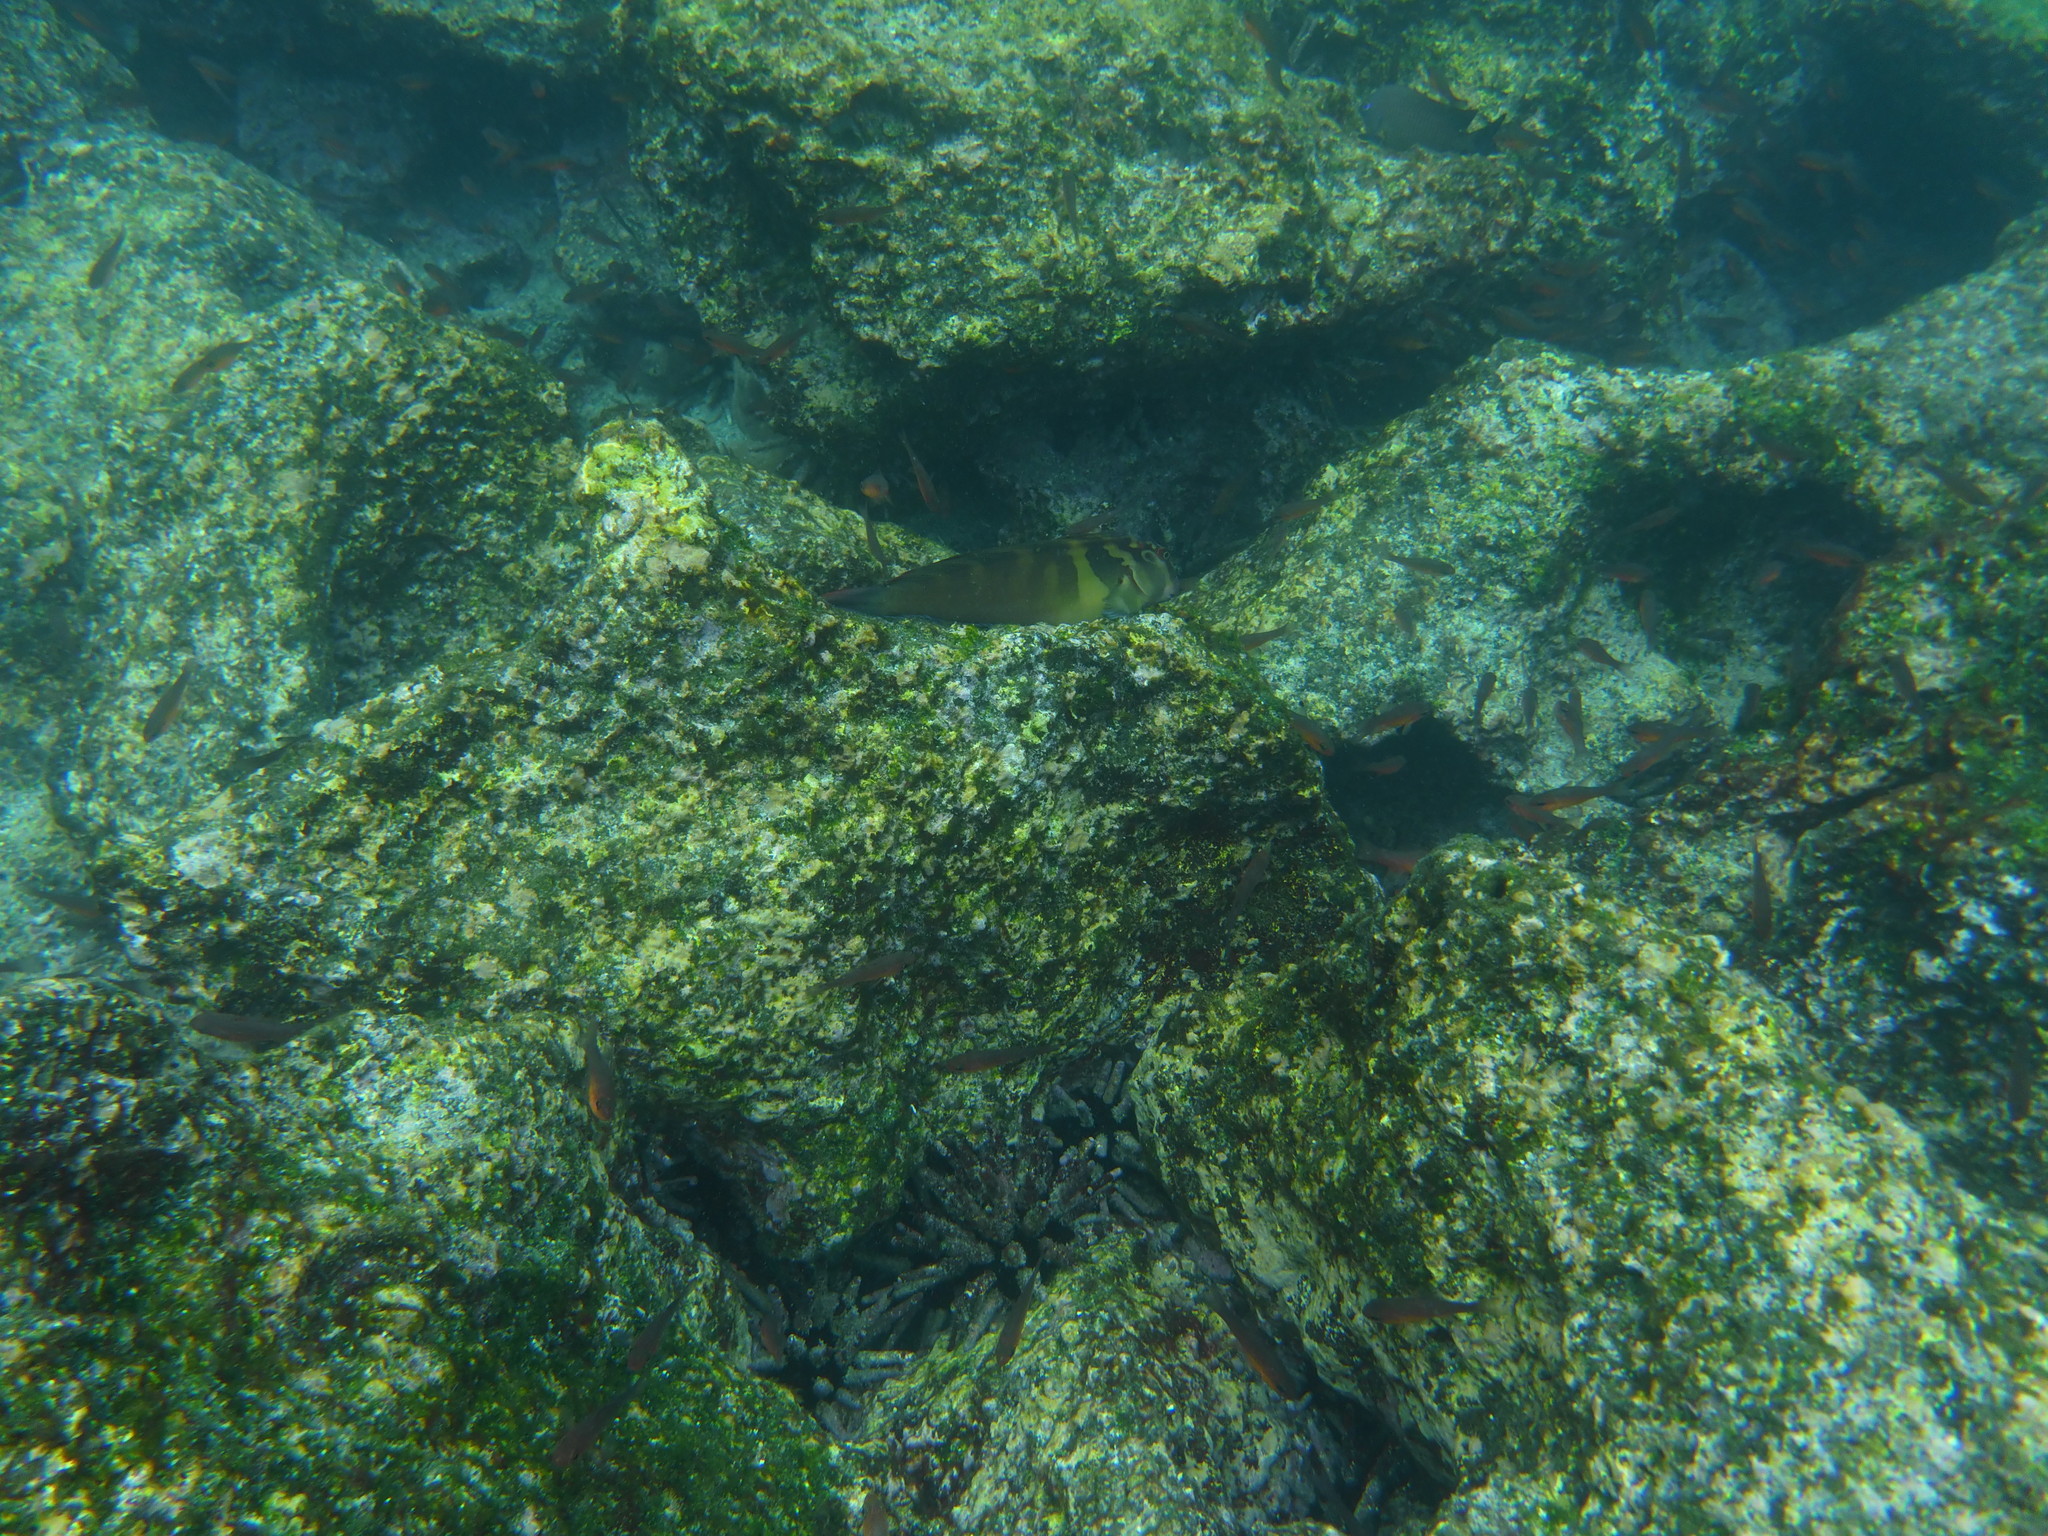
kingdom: Animalia
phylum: Chordata
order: Perciformes
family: Blenniidae
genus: Ophioblennius
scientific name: Ophioblennius steindachneri
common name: Panamic fanged blenny
